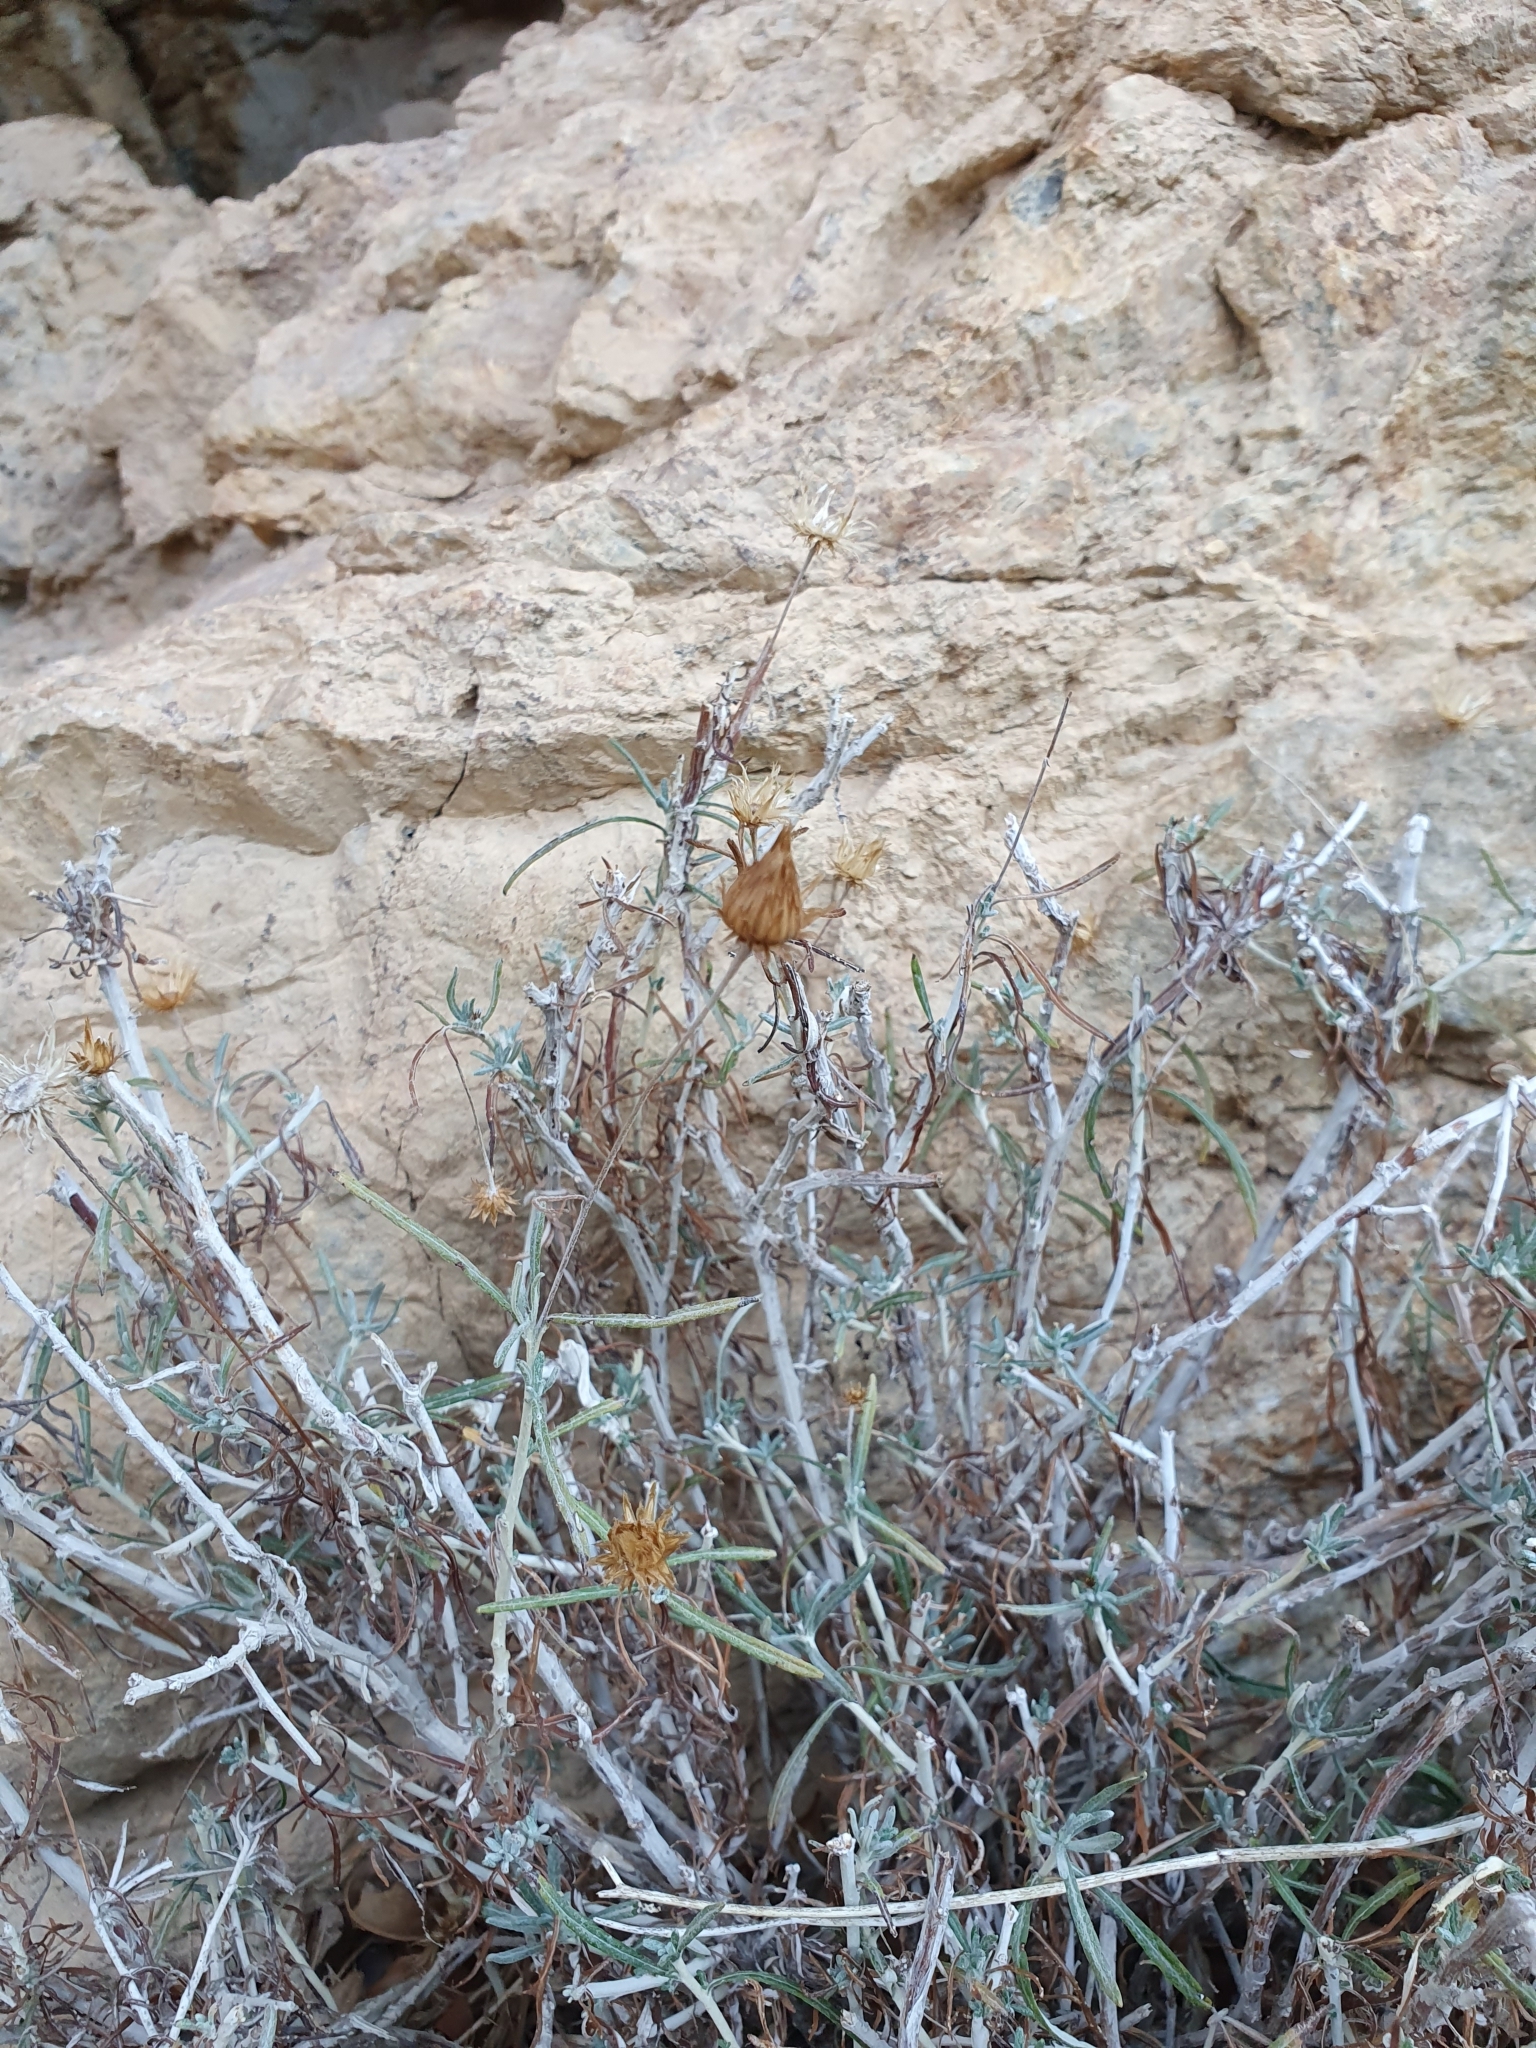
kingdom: Plantae
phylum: Tracheophyta
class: Magnoliopsida
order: Asterales
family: Asteraceae
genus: Phagnalon
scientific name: Phagnalon saxatile
